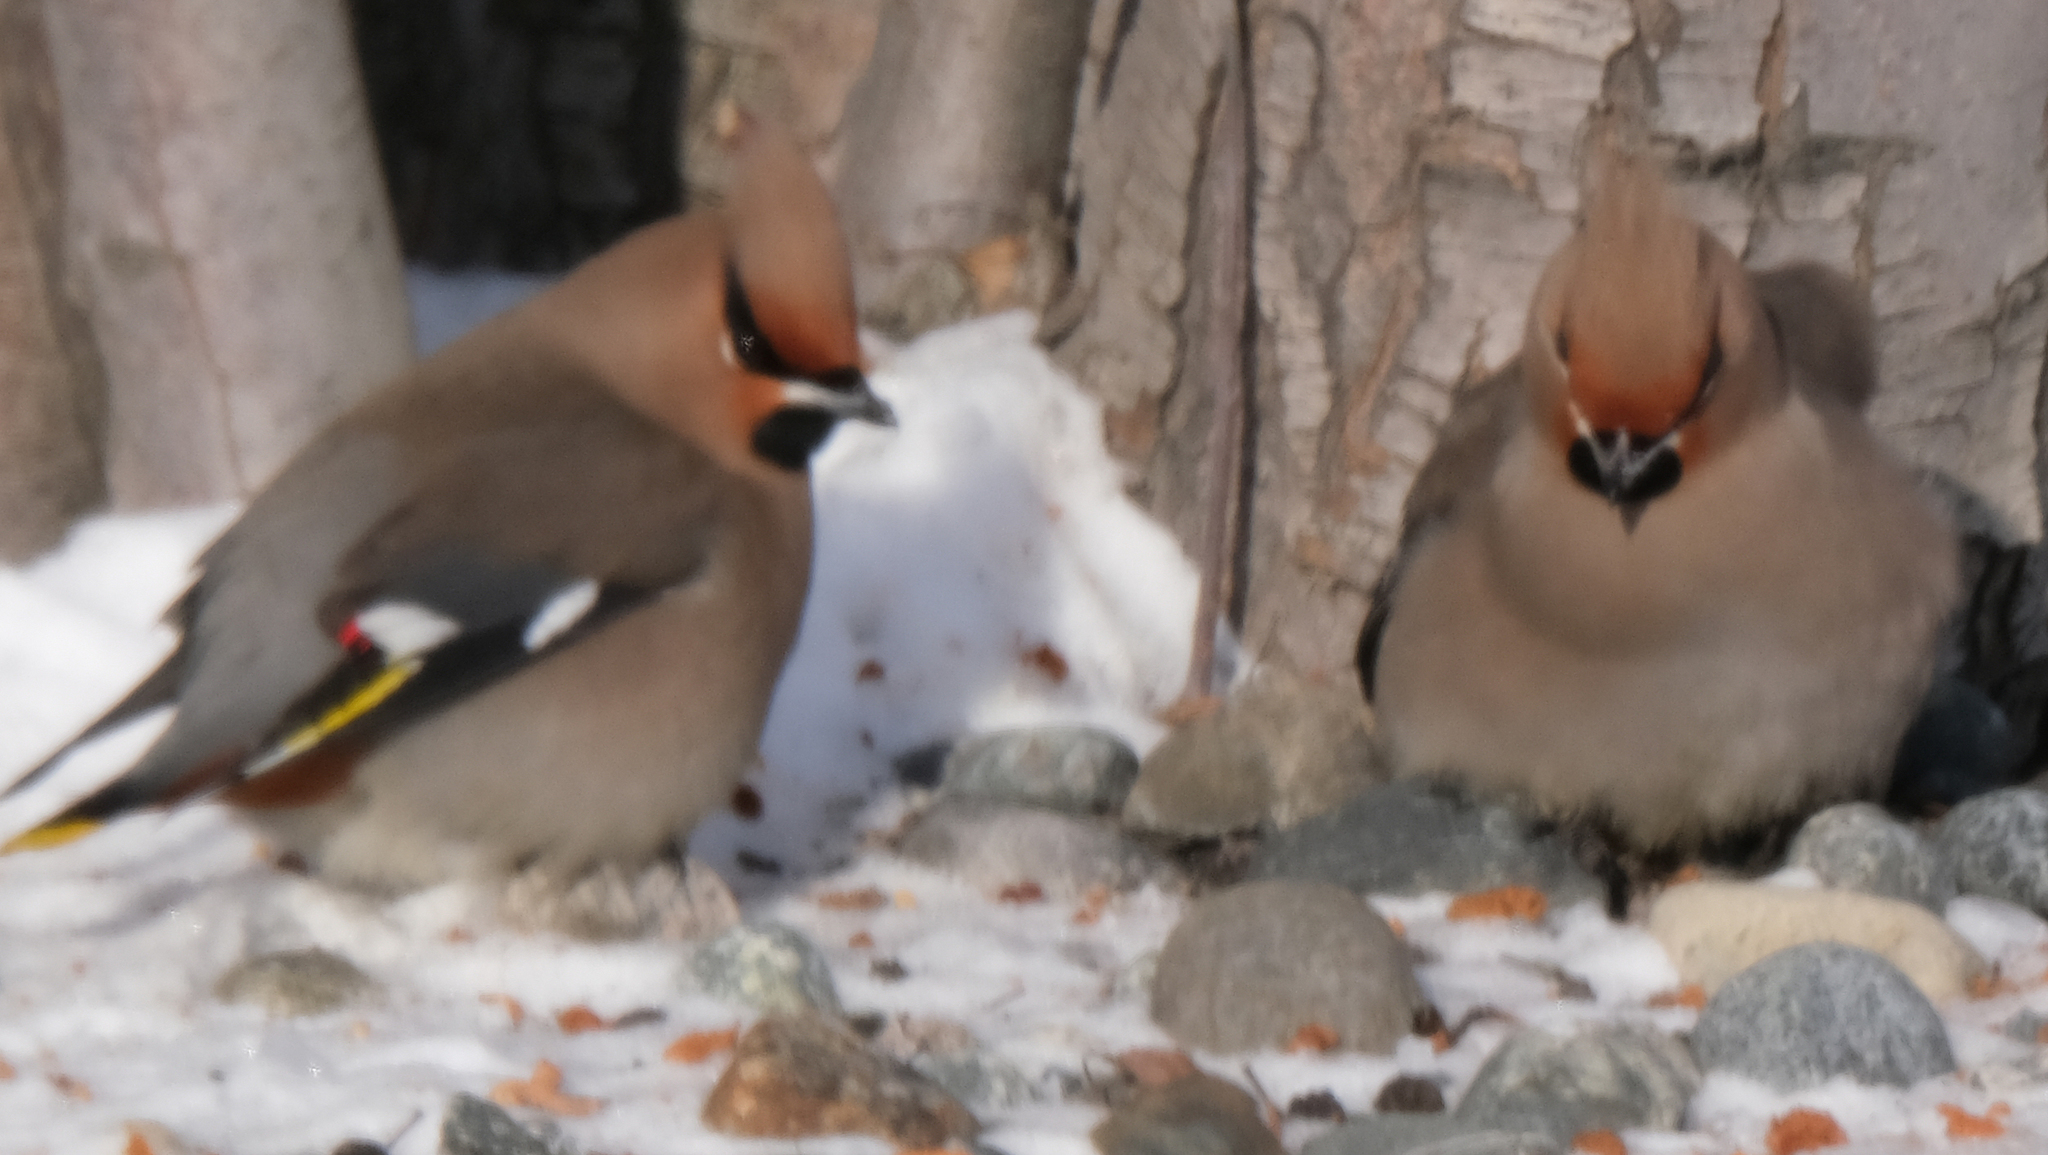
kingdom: Animalia
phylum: Chordata
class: Aves
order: Passeriformes
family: Bombycillidae
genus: Bombycilla
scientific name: Bombycilla garrulus
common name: Bohemian waxwing
